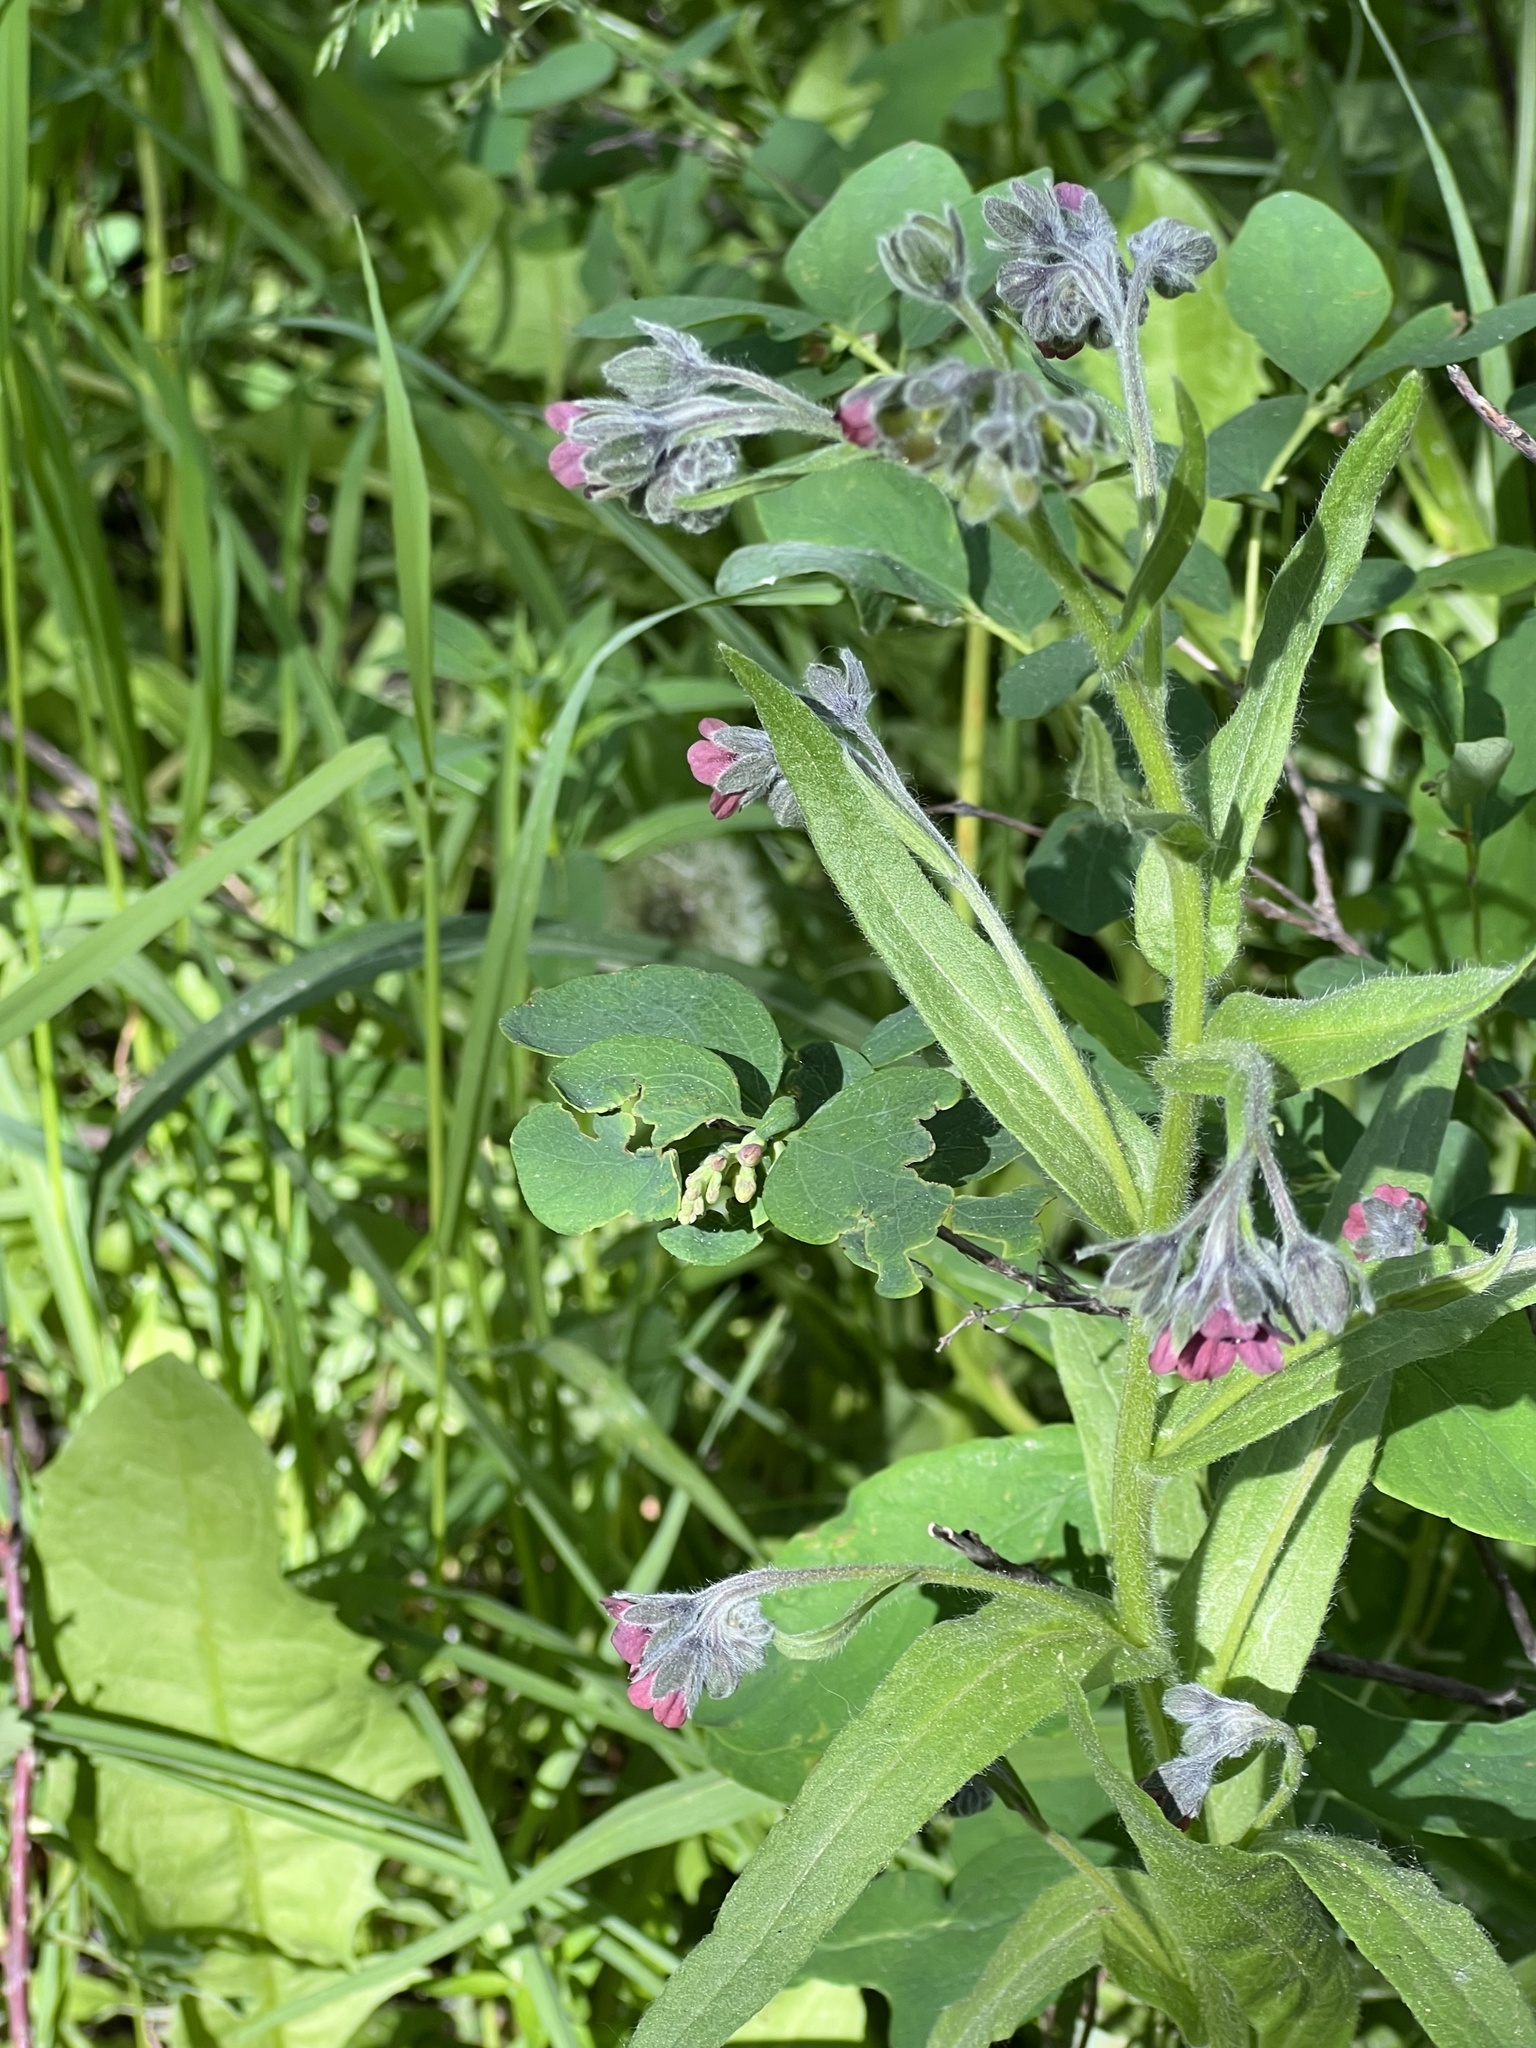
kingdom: Plantae
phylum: Tracheophyta
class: Magnoliopsida
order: Boraginales
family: Boraginaceae
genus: Cynoglossum
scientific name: Cynoglossum officinale
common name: Hound's-tongue
